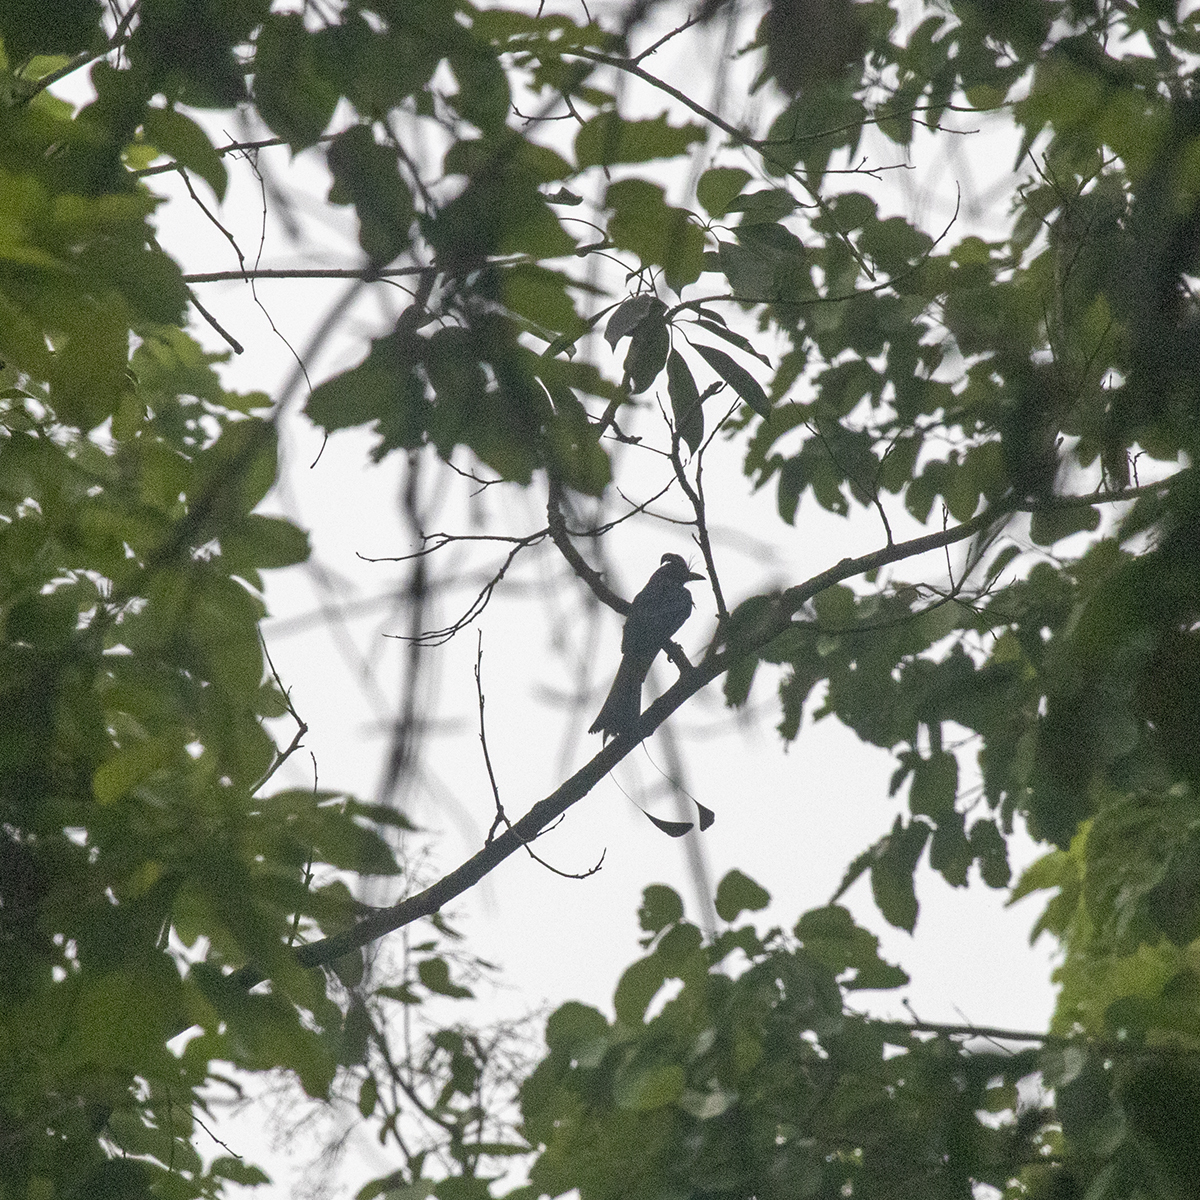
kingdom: Animalia
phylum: Chordata
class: Aves
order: Passeriformes
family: Dicruridae
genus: Dicrurus
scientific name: Dicrurus paradiseus
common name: Greater racket-tailed drongo
